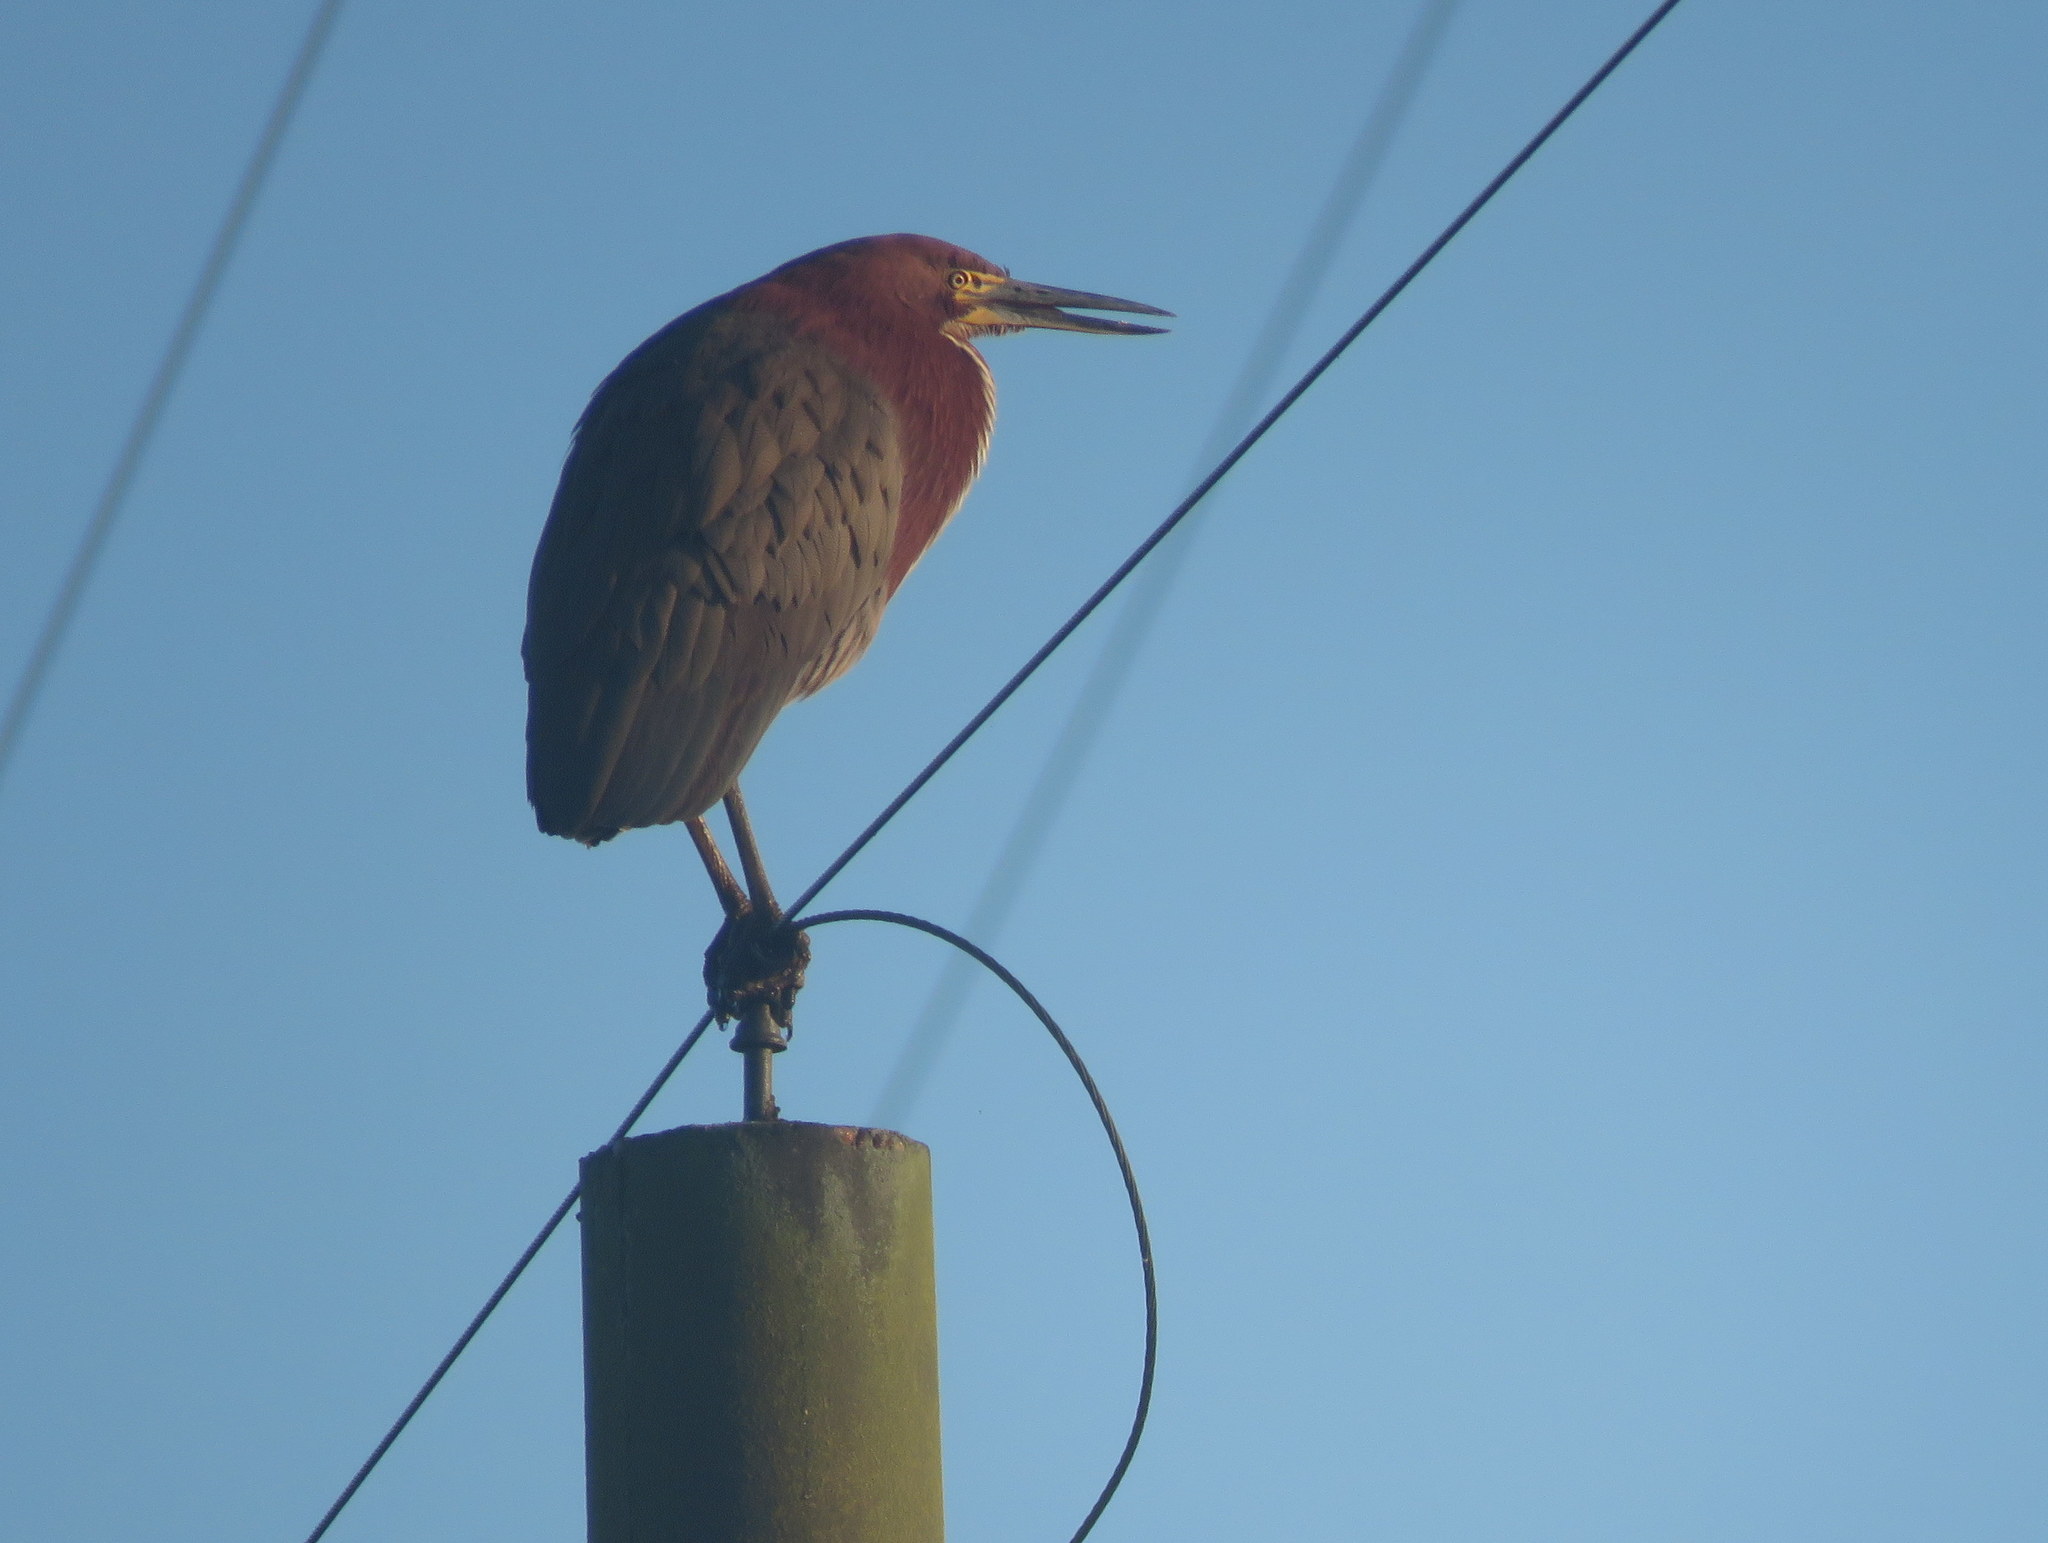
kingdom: Animalia
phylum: Chordata
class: Aves
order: Pelecaniformes
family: Ardeidae
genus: Tigrisoma
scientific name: Tigrisoma lineatum
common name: Rufescent tiger-heron
